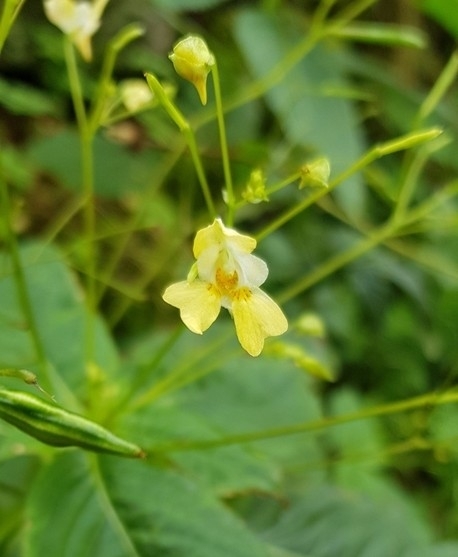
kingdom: Plantae
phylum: Tracheophyta
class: Magnoliopsida
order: Ericales
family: Balsaminaceae
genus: Impatiens
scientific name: Impatiens parviflora
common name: Small balsam
